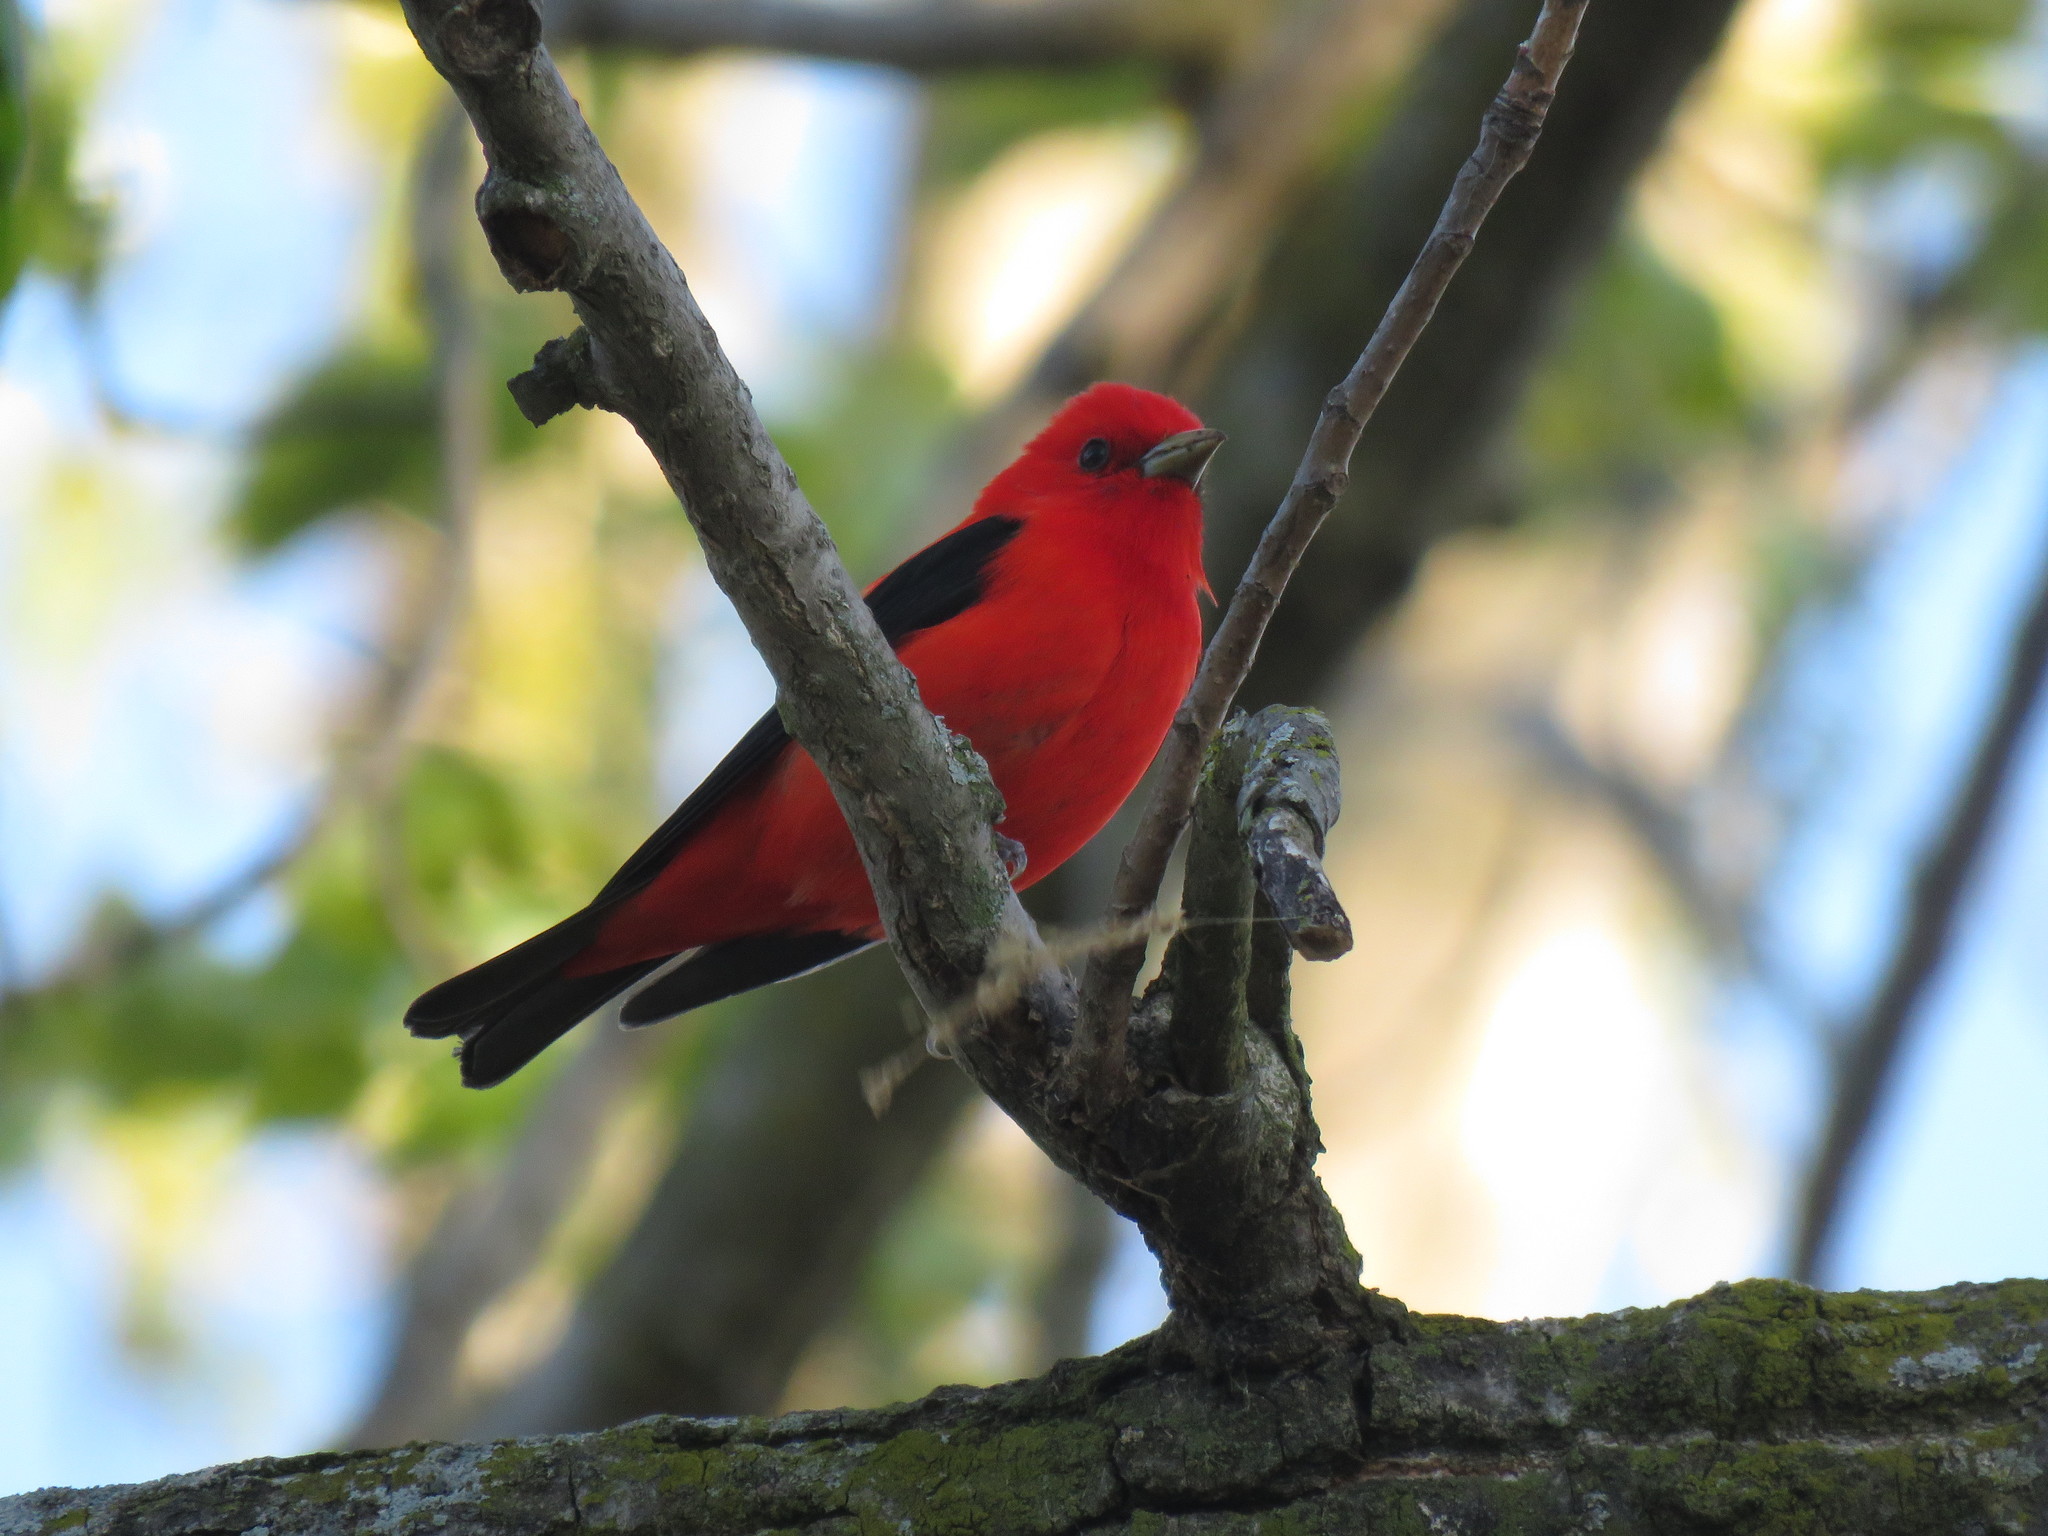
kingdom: Animalia
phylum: Chordata
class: Aves
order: Passeriformes
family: Cardinalidae
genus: Piranga
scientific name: Piranga olivacea
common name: Scarlet tanager
